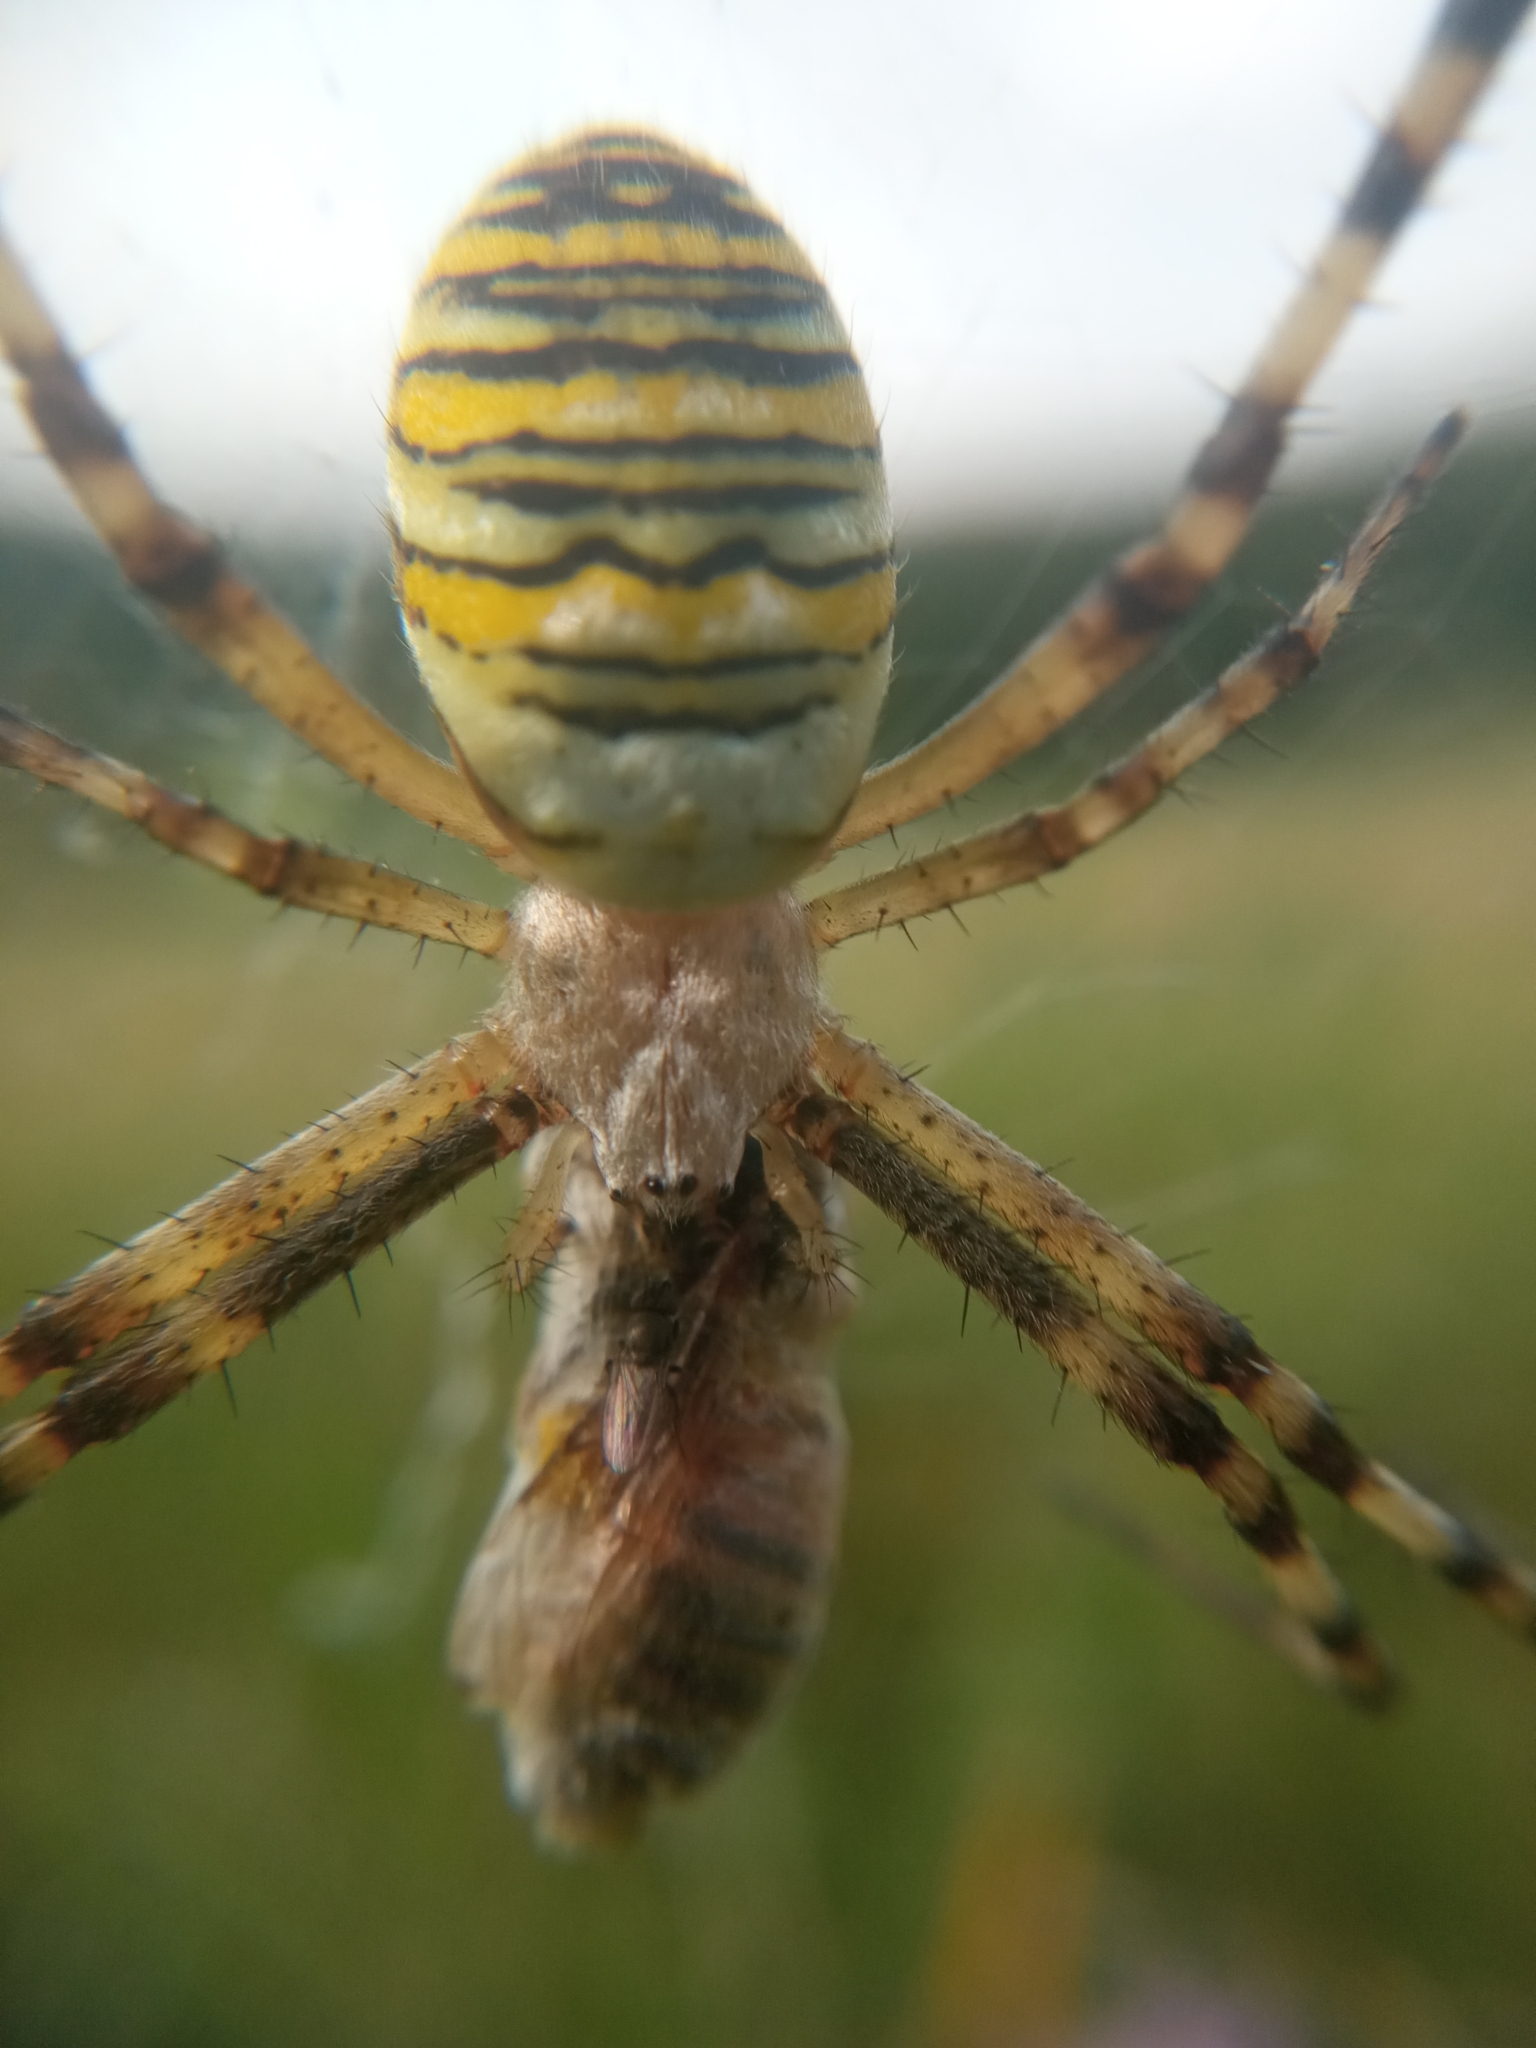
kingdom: Animalia
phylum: Arthropoda
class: Arachnida
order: Araneae
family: Araneidae
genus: Argiope
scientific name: Argiope bruennichi
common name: Wasp spider
